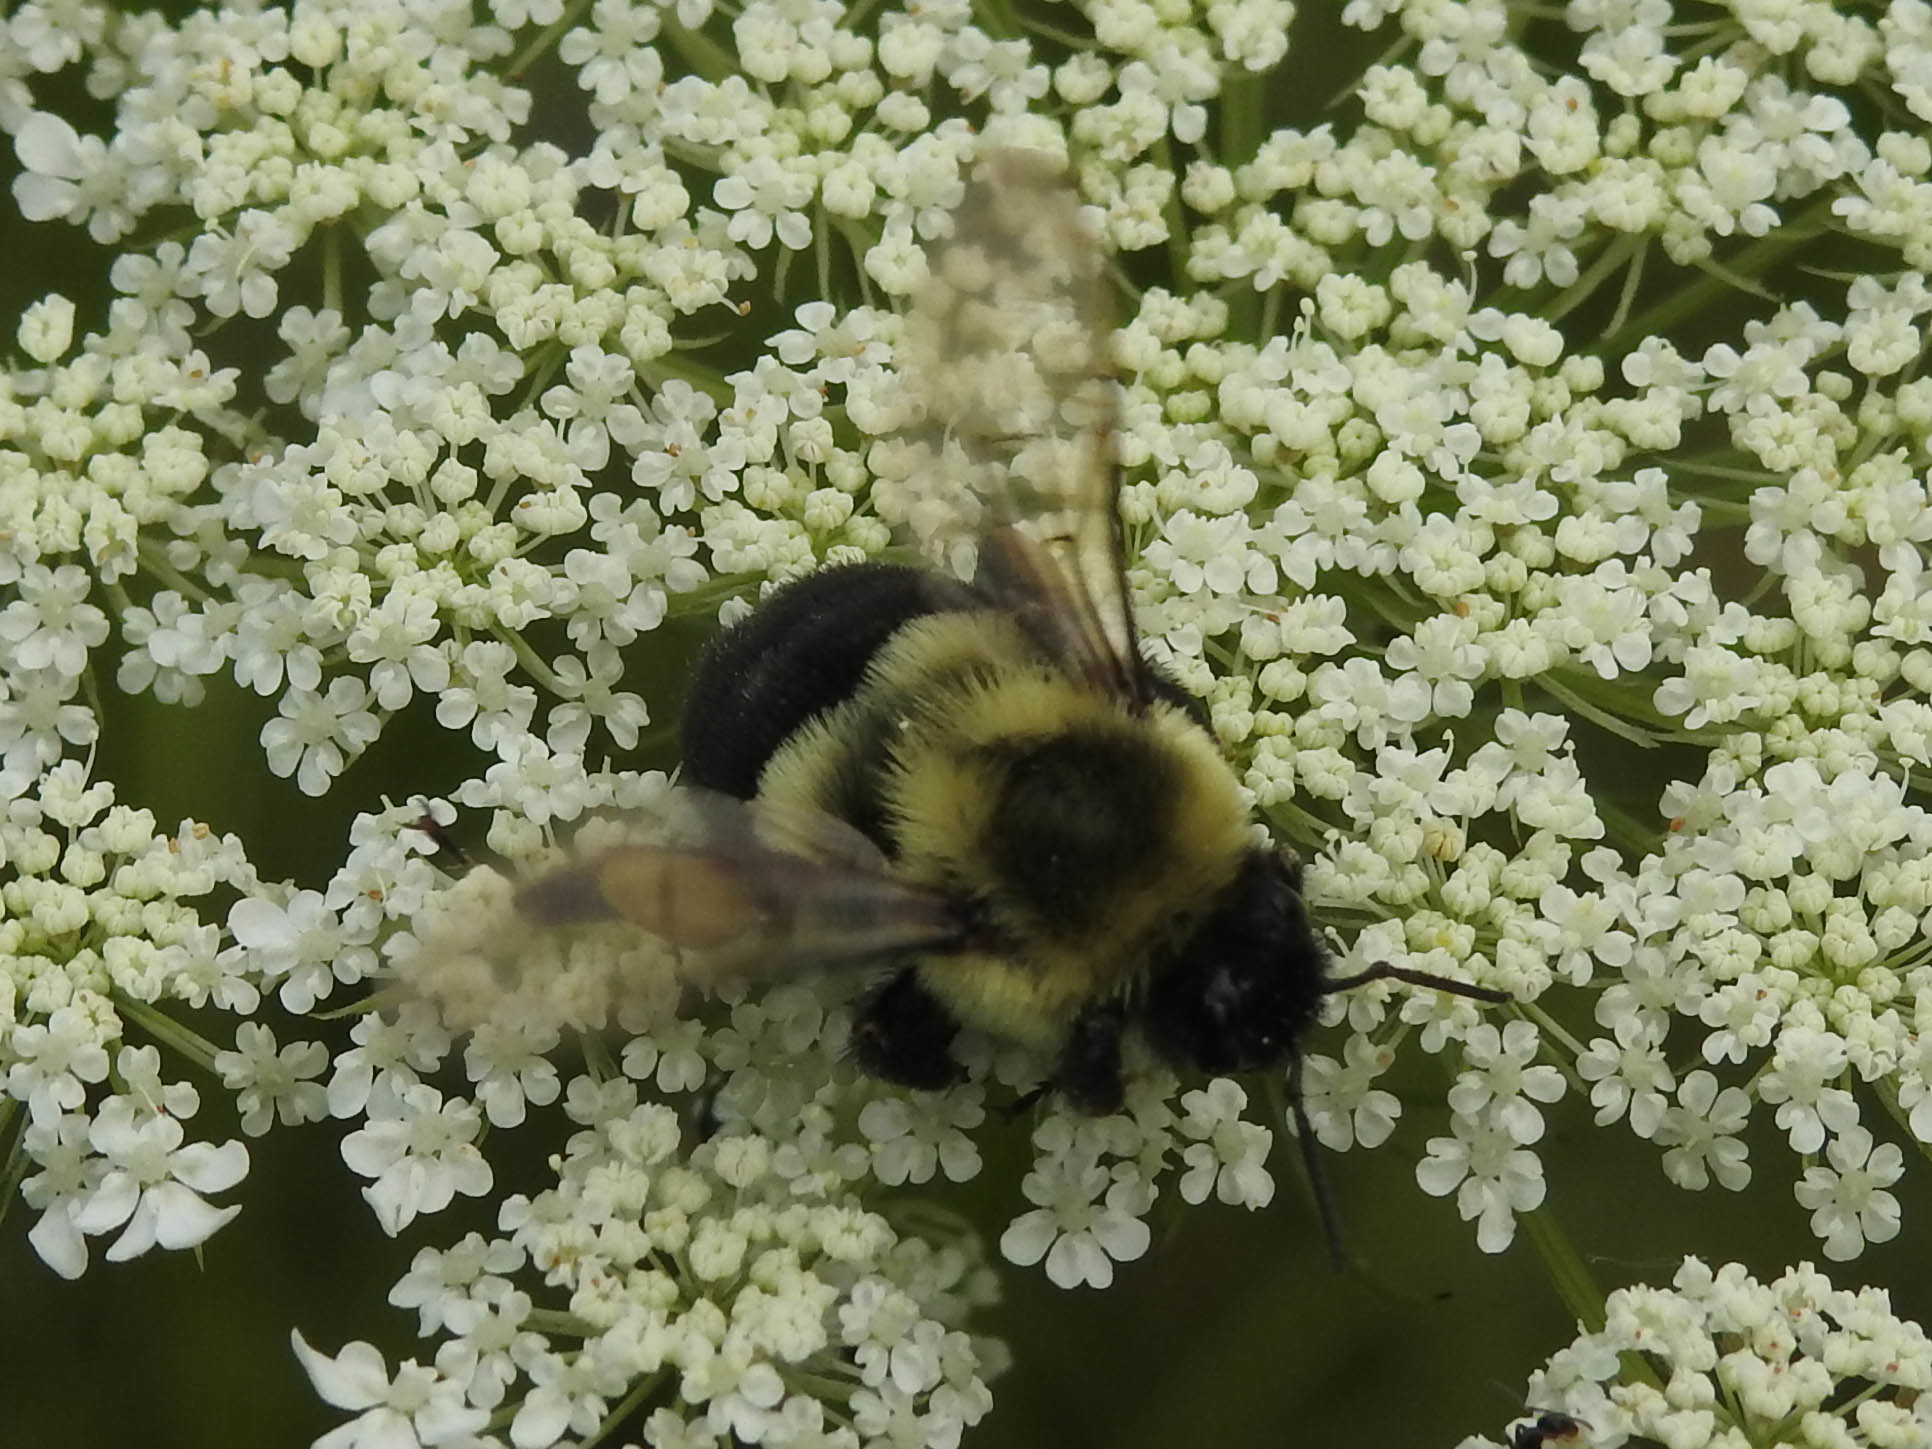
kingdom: Animalia
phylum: Arthropoda
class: Insecta
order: Hymenoptera
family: Apidae
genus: Bombus
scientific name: Bombus impatiens
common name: Common eastern bumble bee
